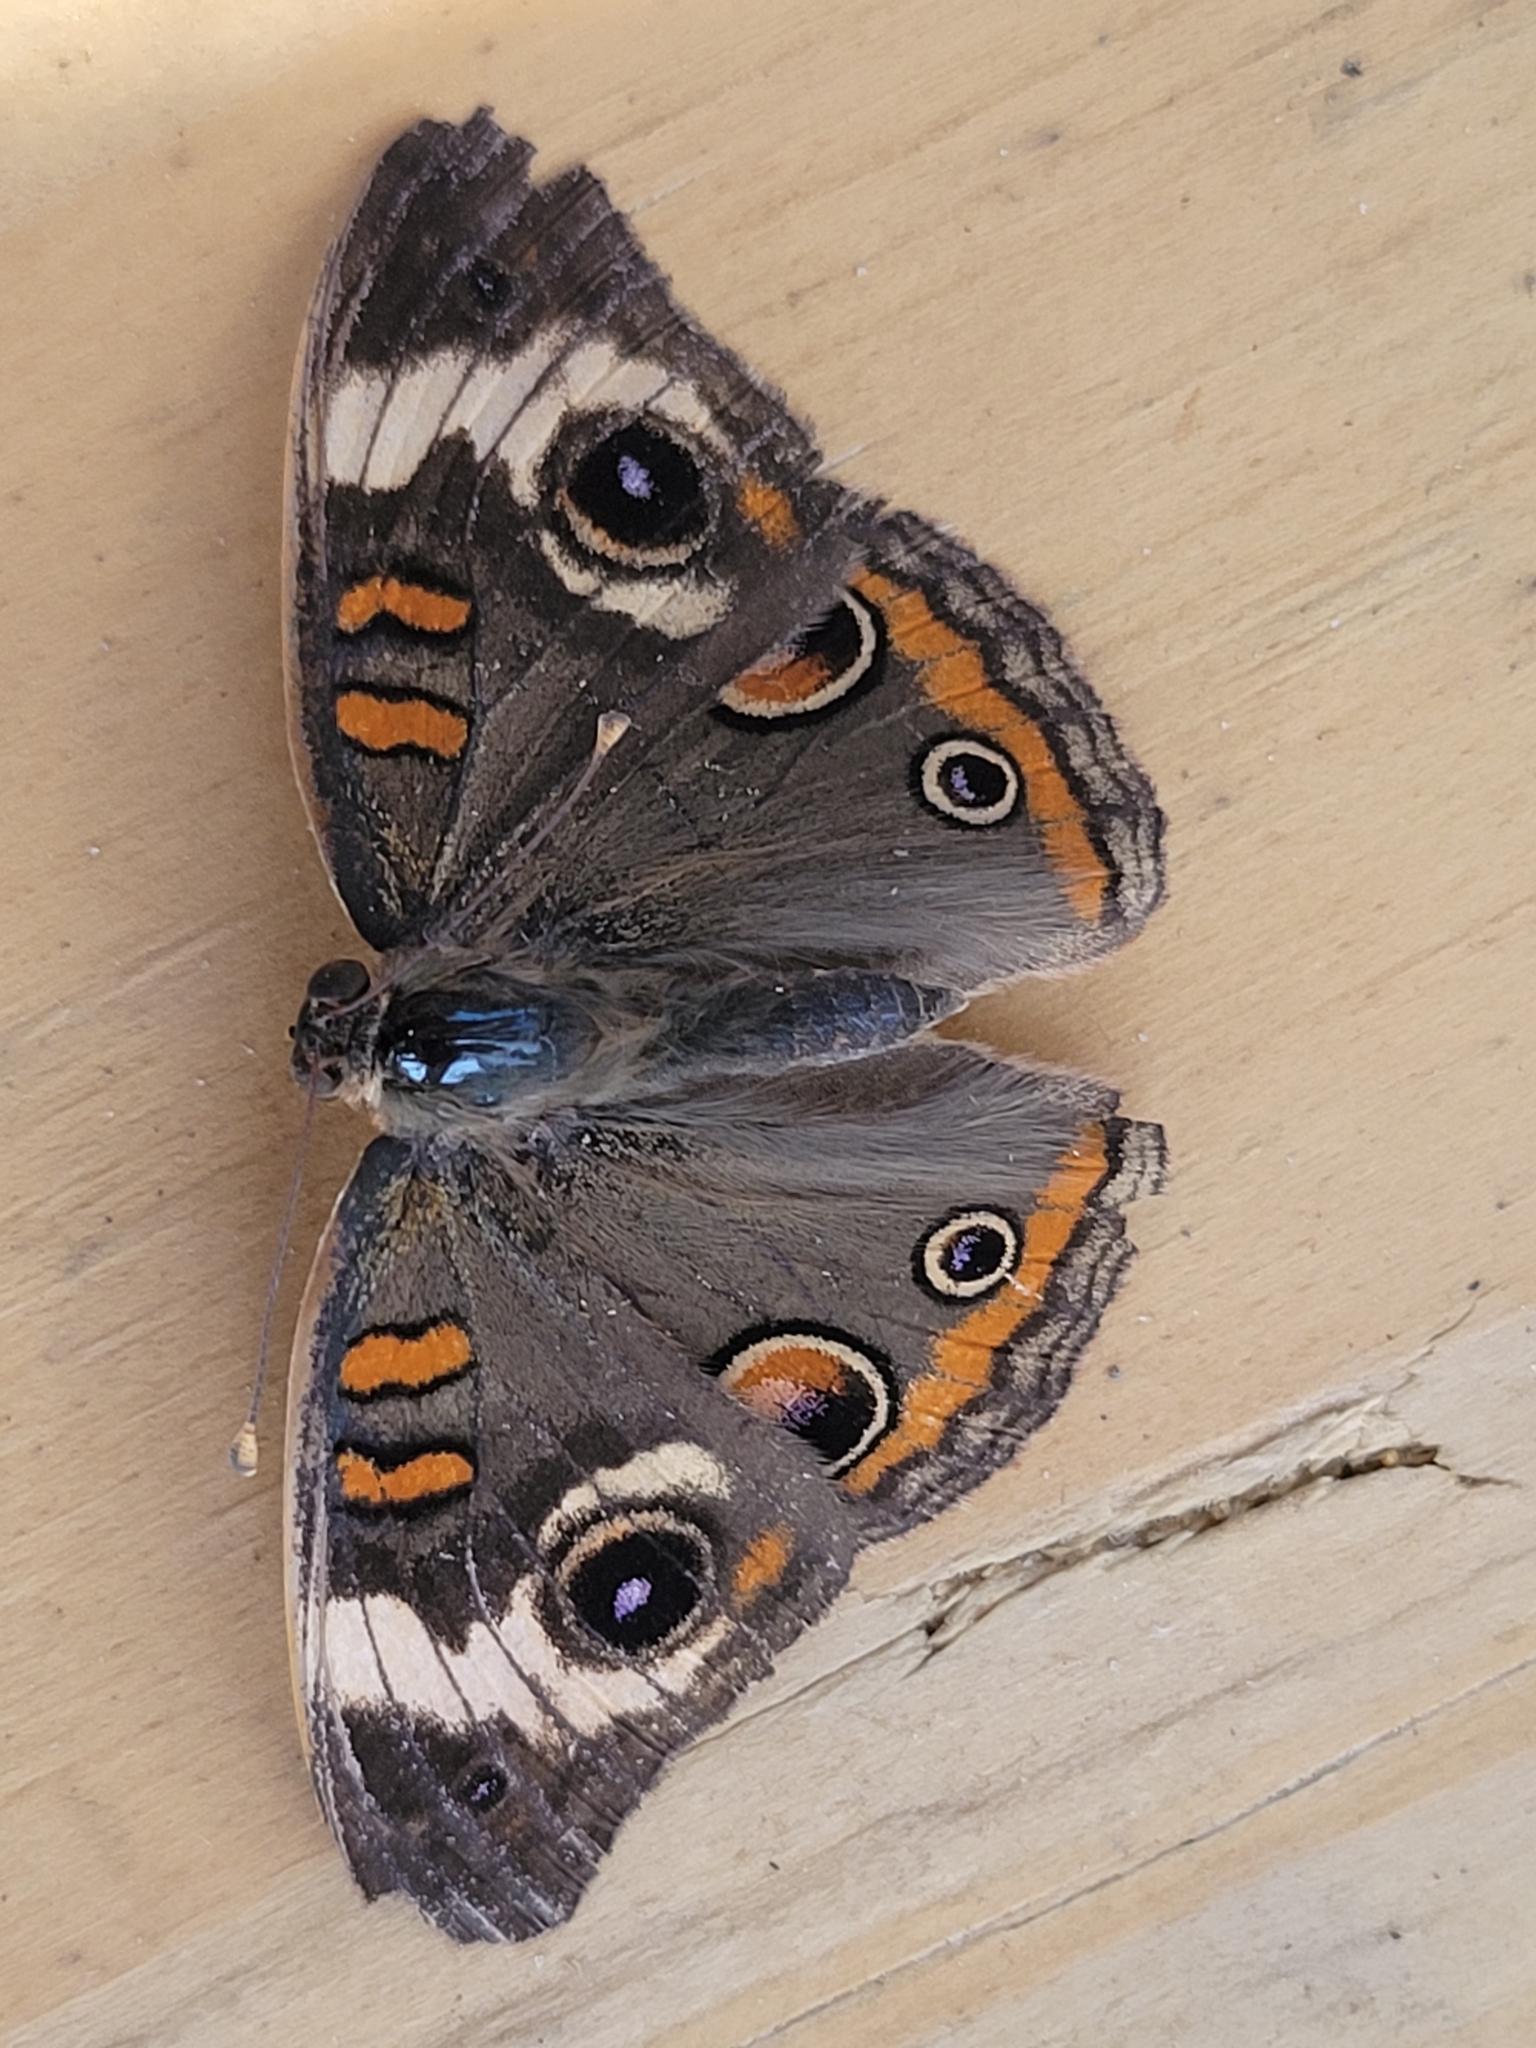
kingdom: Animalia
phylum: Arthropoda
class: Insecta
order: Lepidoptera
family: Nymphalidae
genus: Junonia
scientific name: Junonia coenia
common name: Common buckeye
